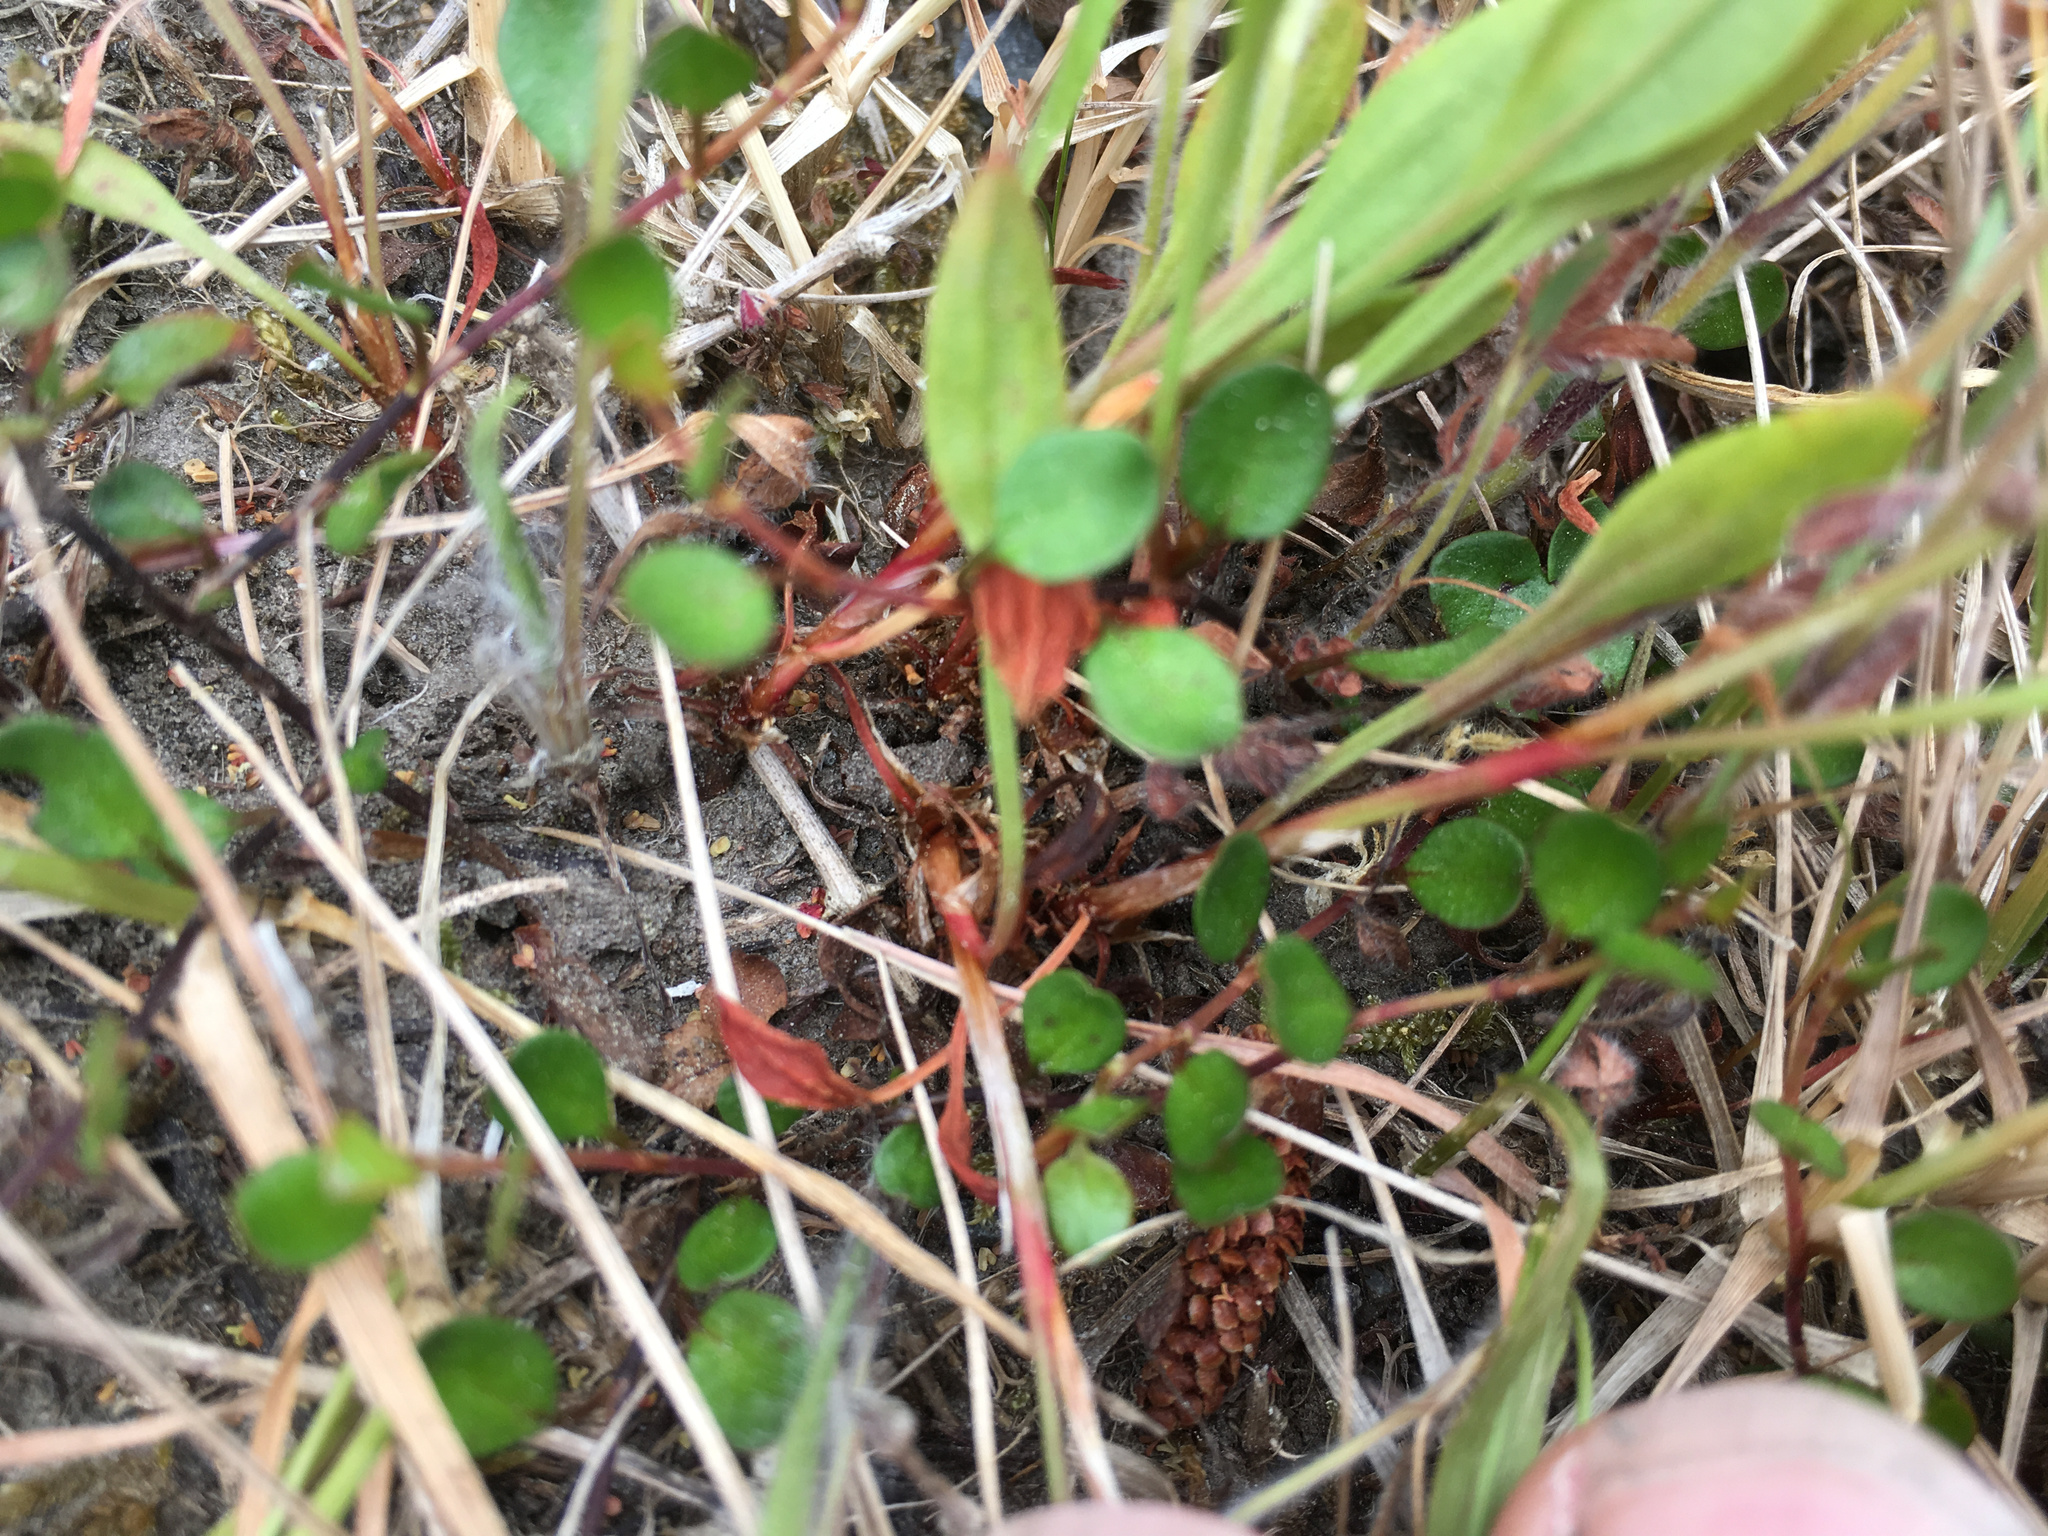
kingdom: Plantae
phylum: Tracheophyta
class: Magnoliopsida
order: Caryophyllales
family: Polygonaceae
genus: Muehlenbeckia
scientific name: Muehlenbeckia axillaris
